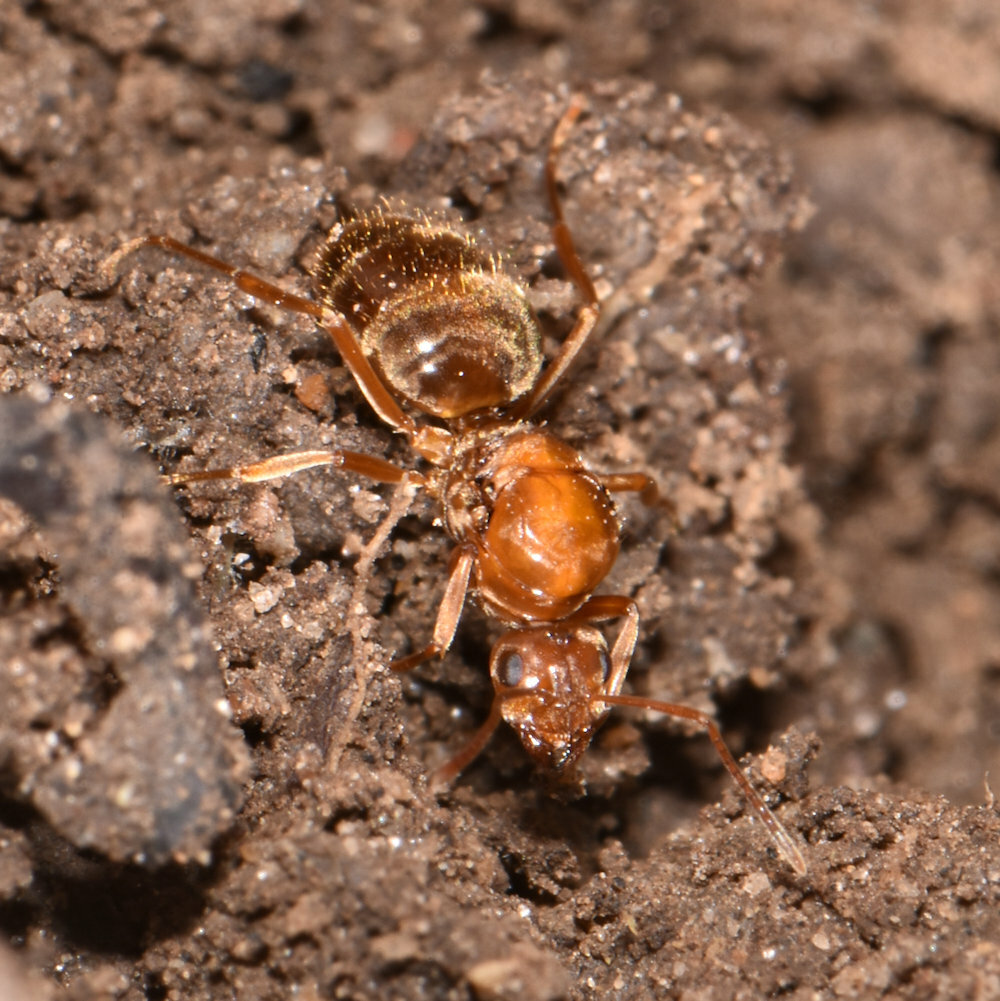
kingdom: Animalia
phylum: Arthropoda
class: Insecta
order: Hymenoptera
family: Formicidae
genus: Prenolepis
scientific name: Prenolepis imparis
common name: Small honey ant
